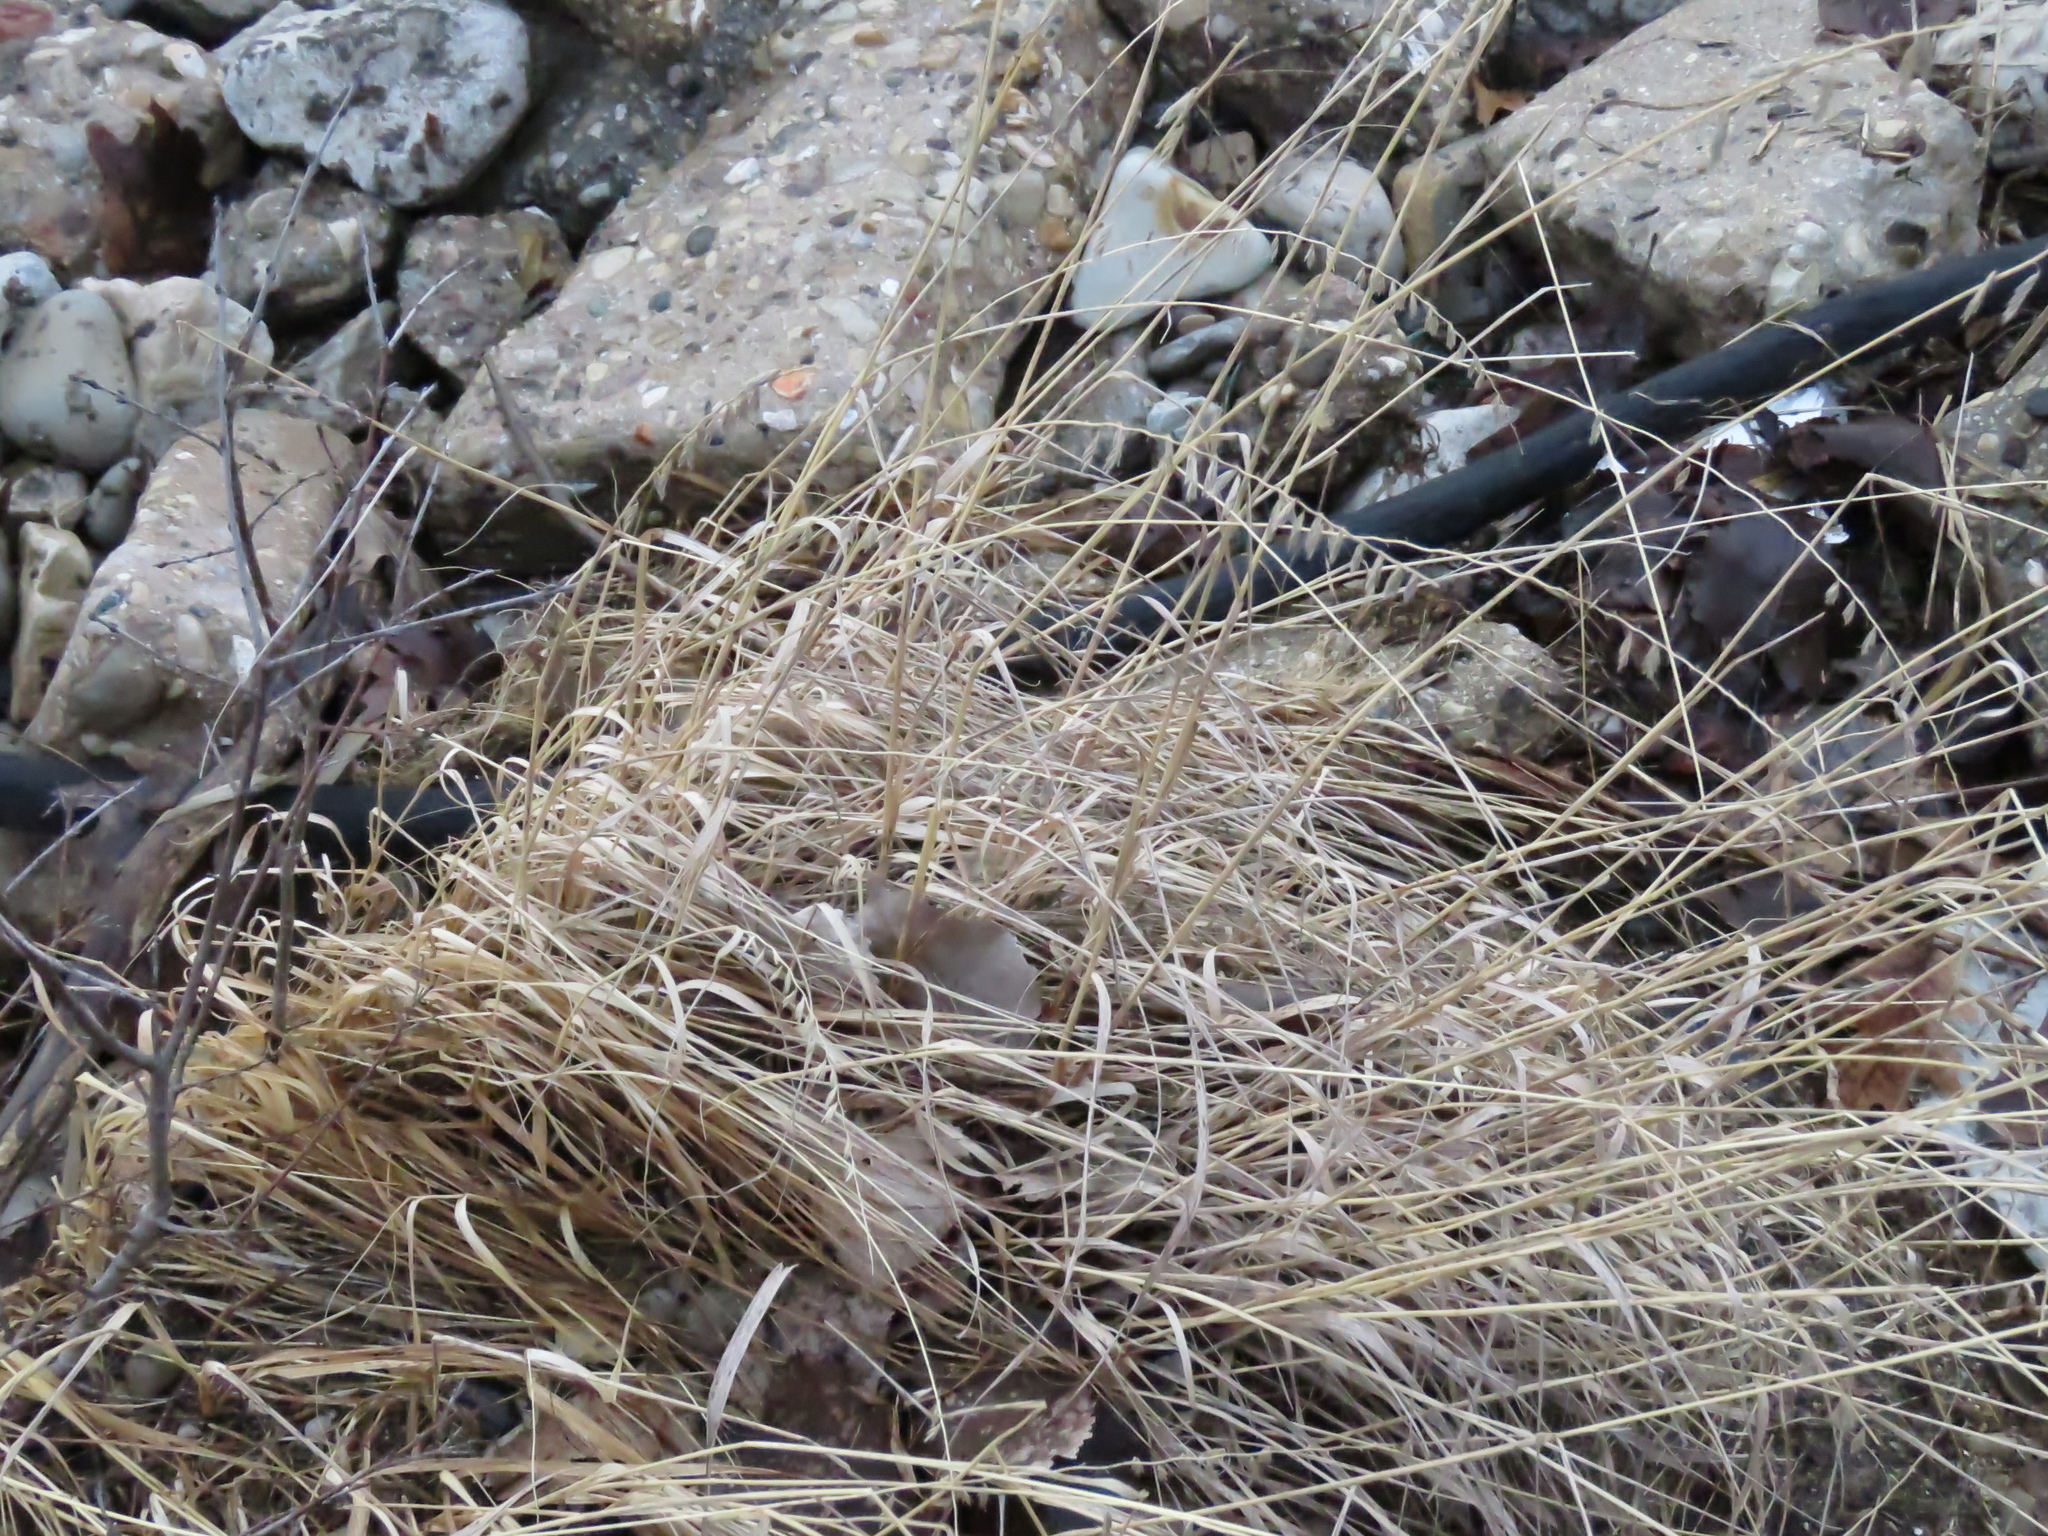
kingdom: Plantae
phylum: Tracheophyta
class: Liliopsida
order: Poales
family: Poaceae
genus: Bouteloua
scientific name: Bouteloua curtipendula
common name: Side-oats grama
